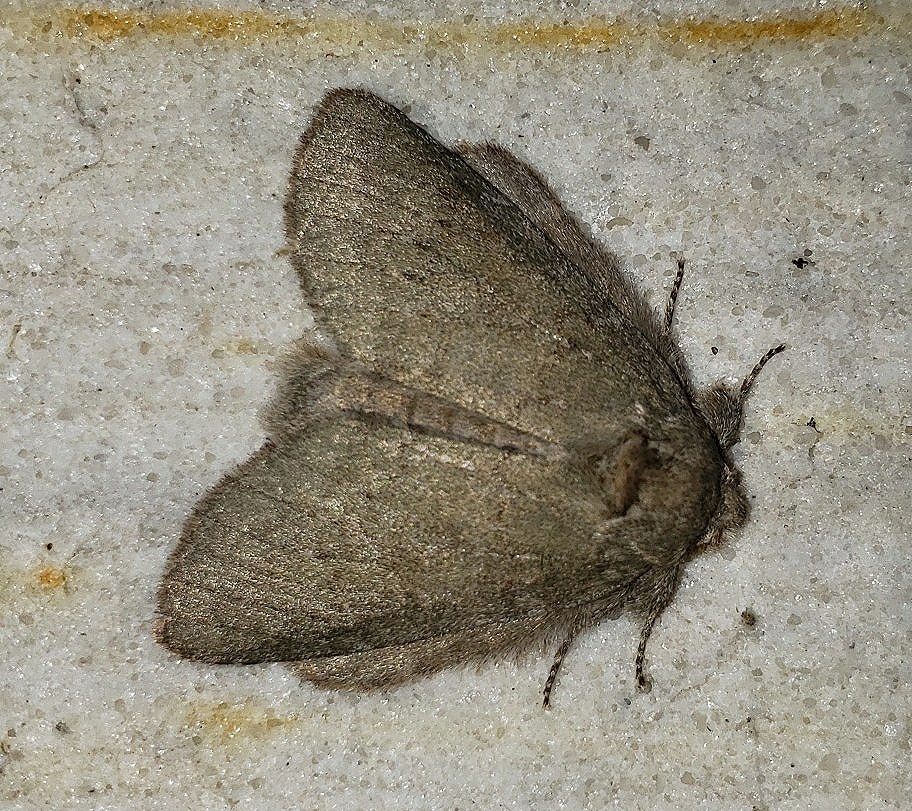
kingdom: Animalia
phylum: Arthropoda
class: Insecta
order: Lepidoptera
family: Notodontidae
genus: Misogada
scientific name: Misogada unicolor
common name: Drab prominent
